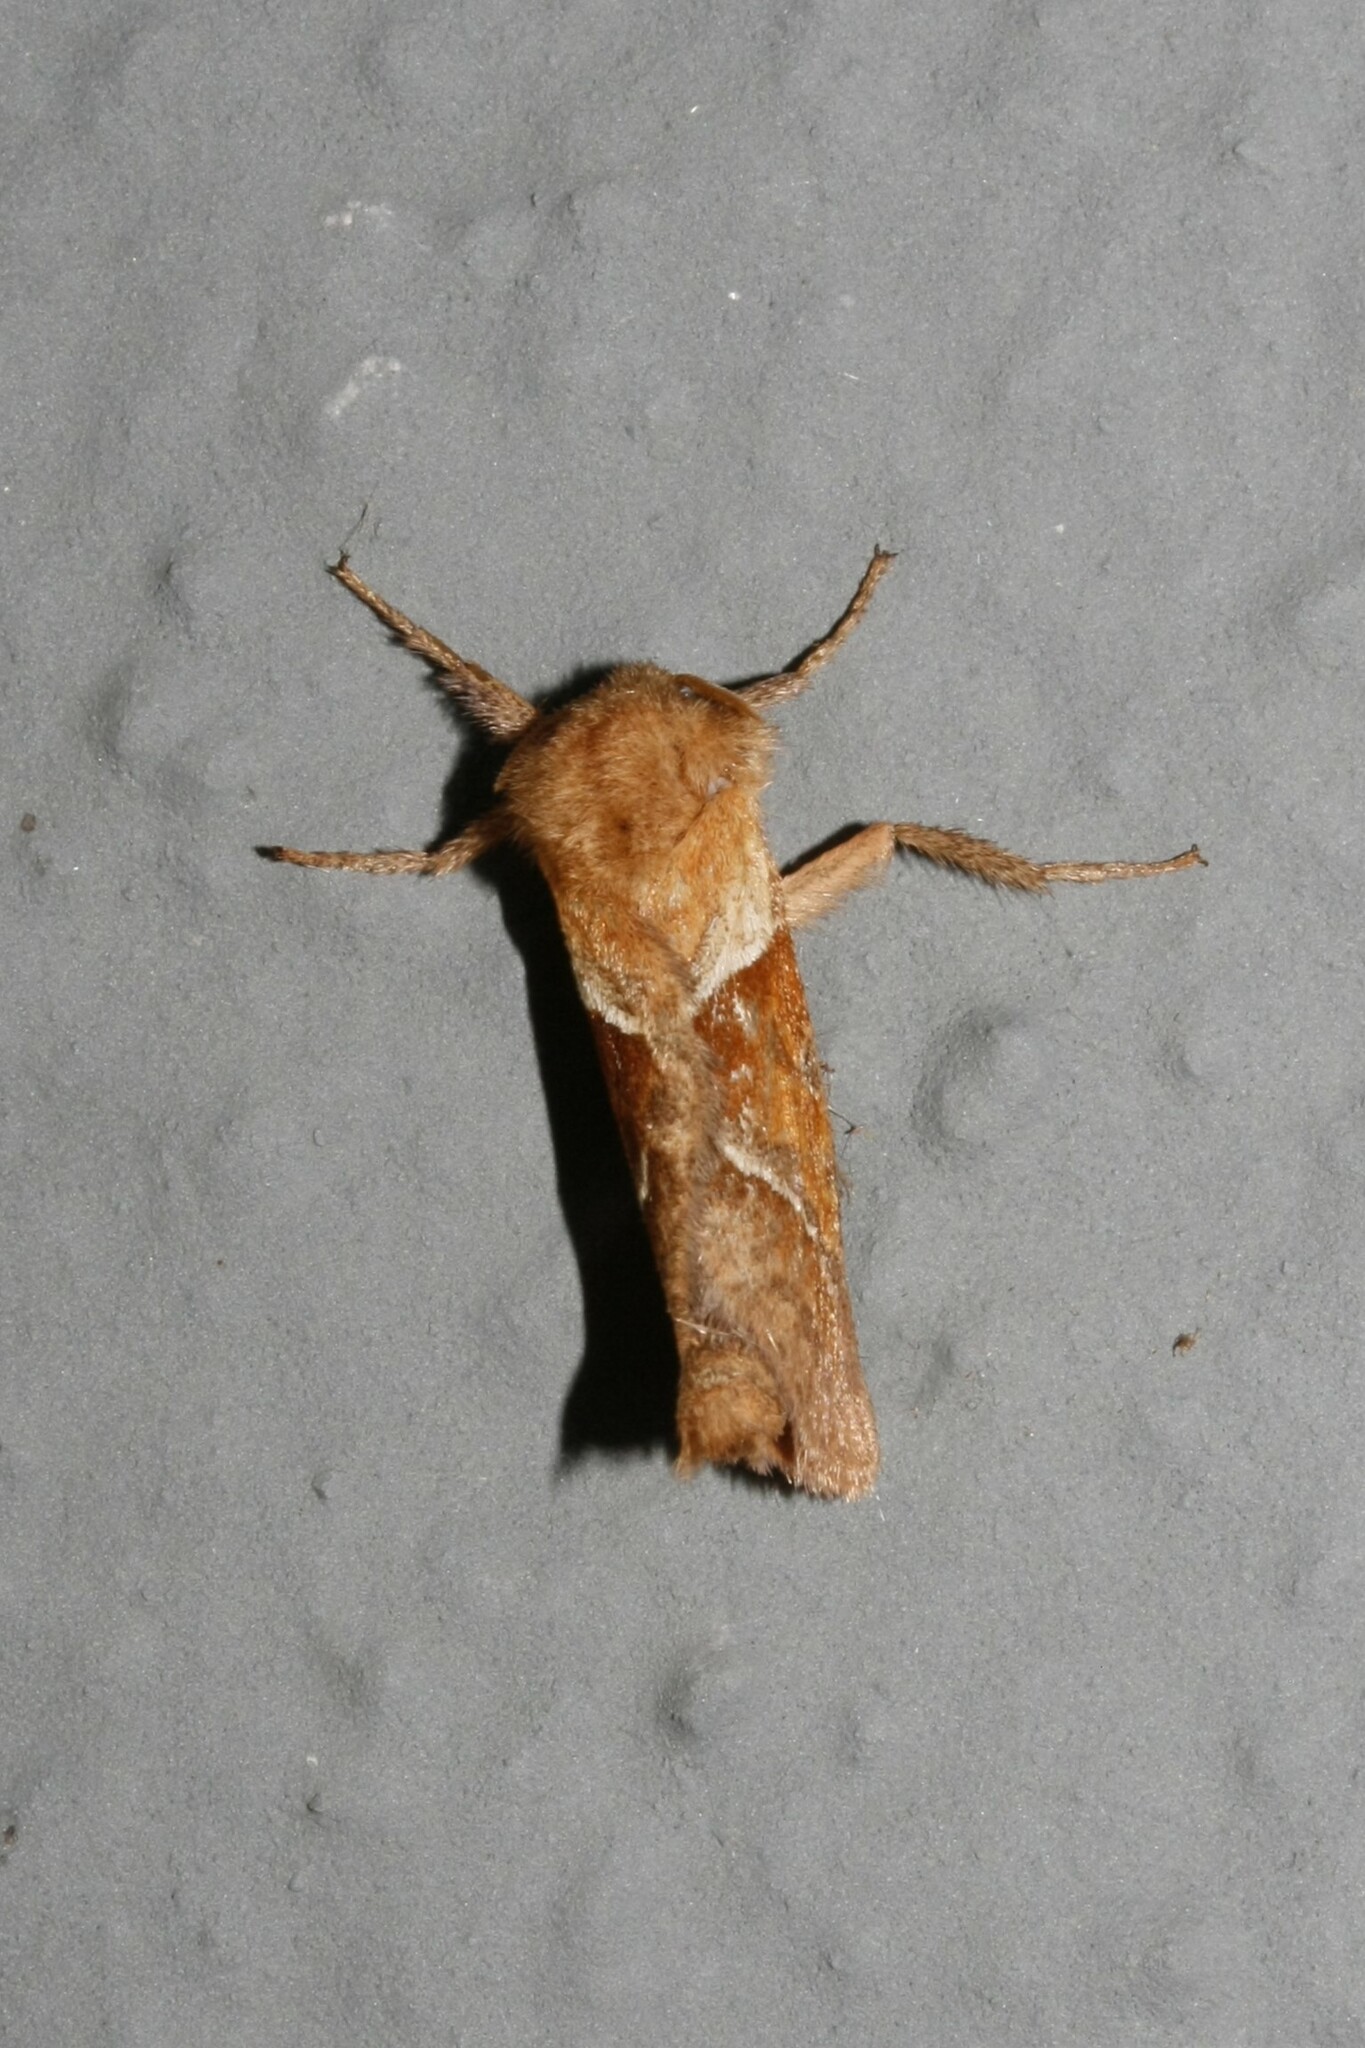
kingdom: Animalia
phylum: Arthropoda
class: Insecta
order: Lepidoptera
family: Hepialidae
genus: Triodia
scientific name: Triodia sylvina
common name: Orange swift
